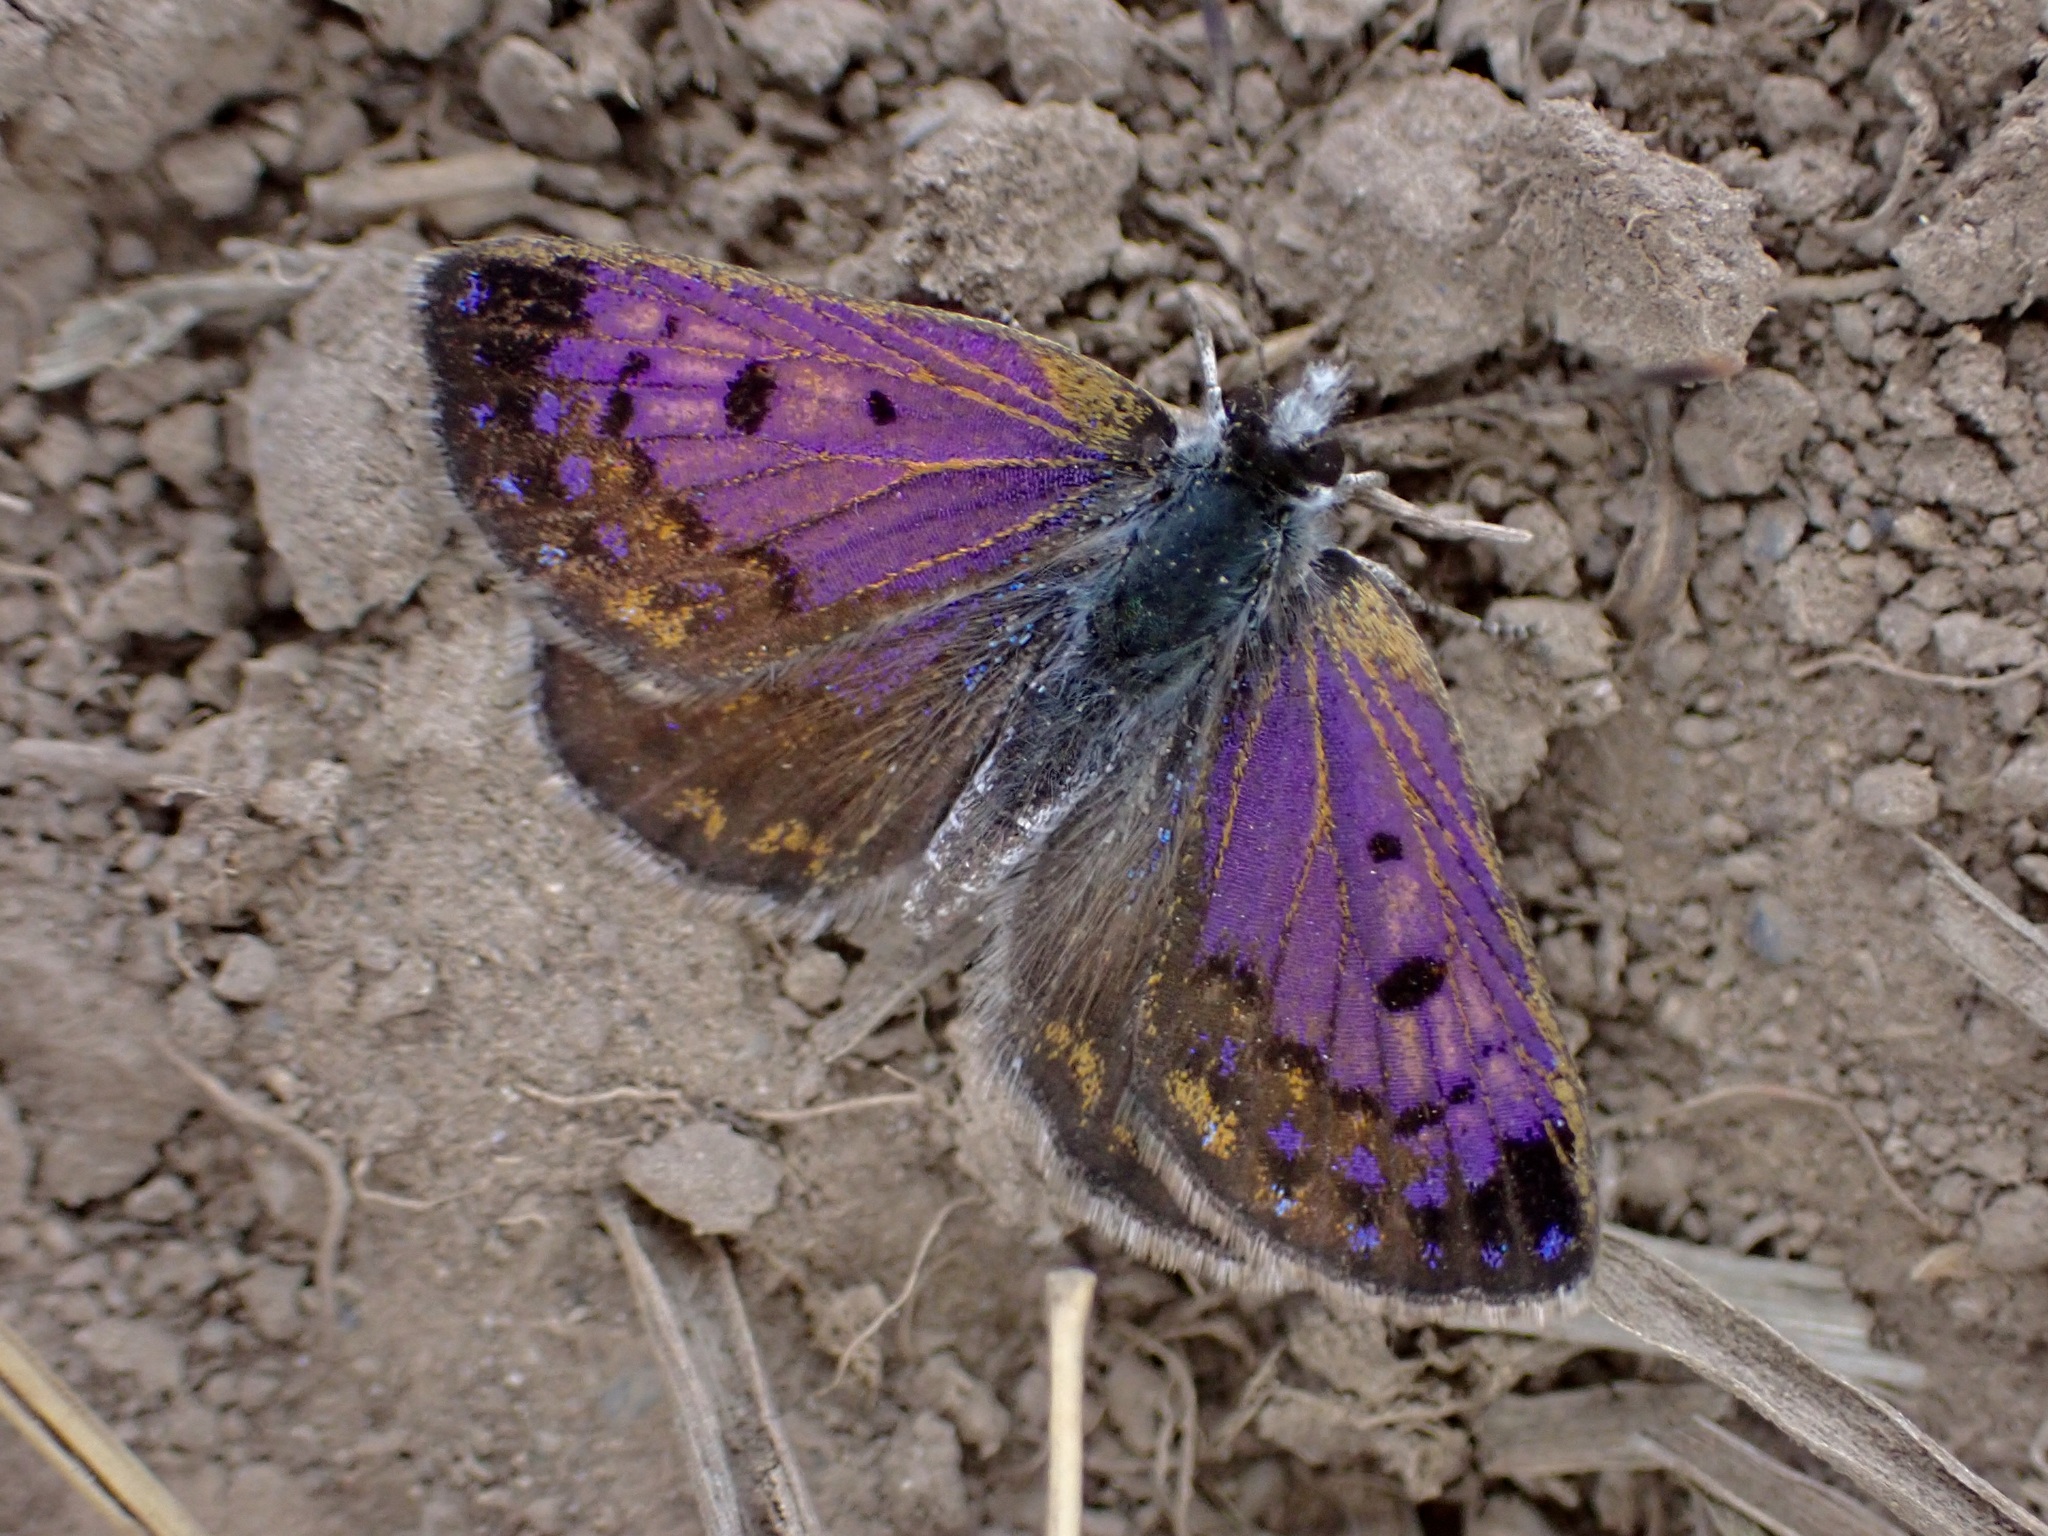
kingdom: Animalia
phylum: Arthropoda
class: Insecta
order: Lepidoptera
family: Lycaenidae
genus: Lycaena
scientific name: Lycaena tama
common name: Canterbury alpine boulder copper
